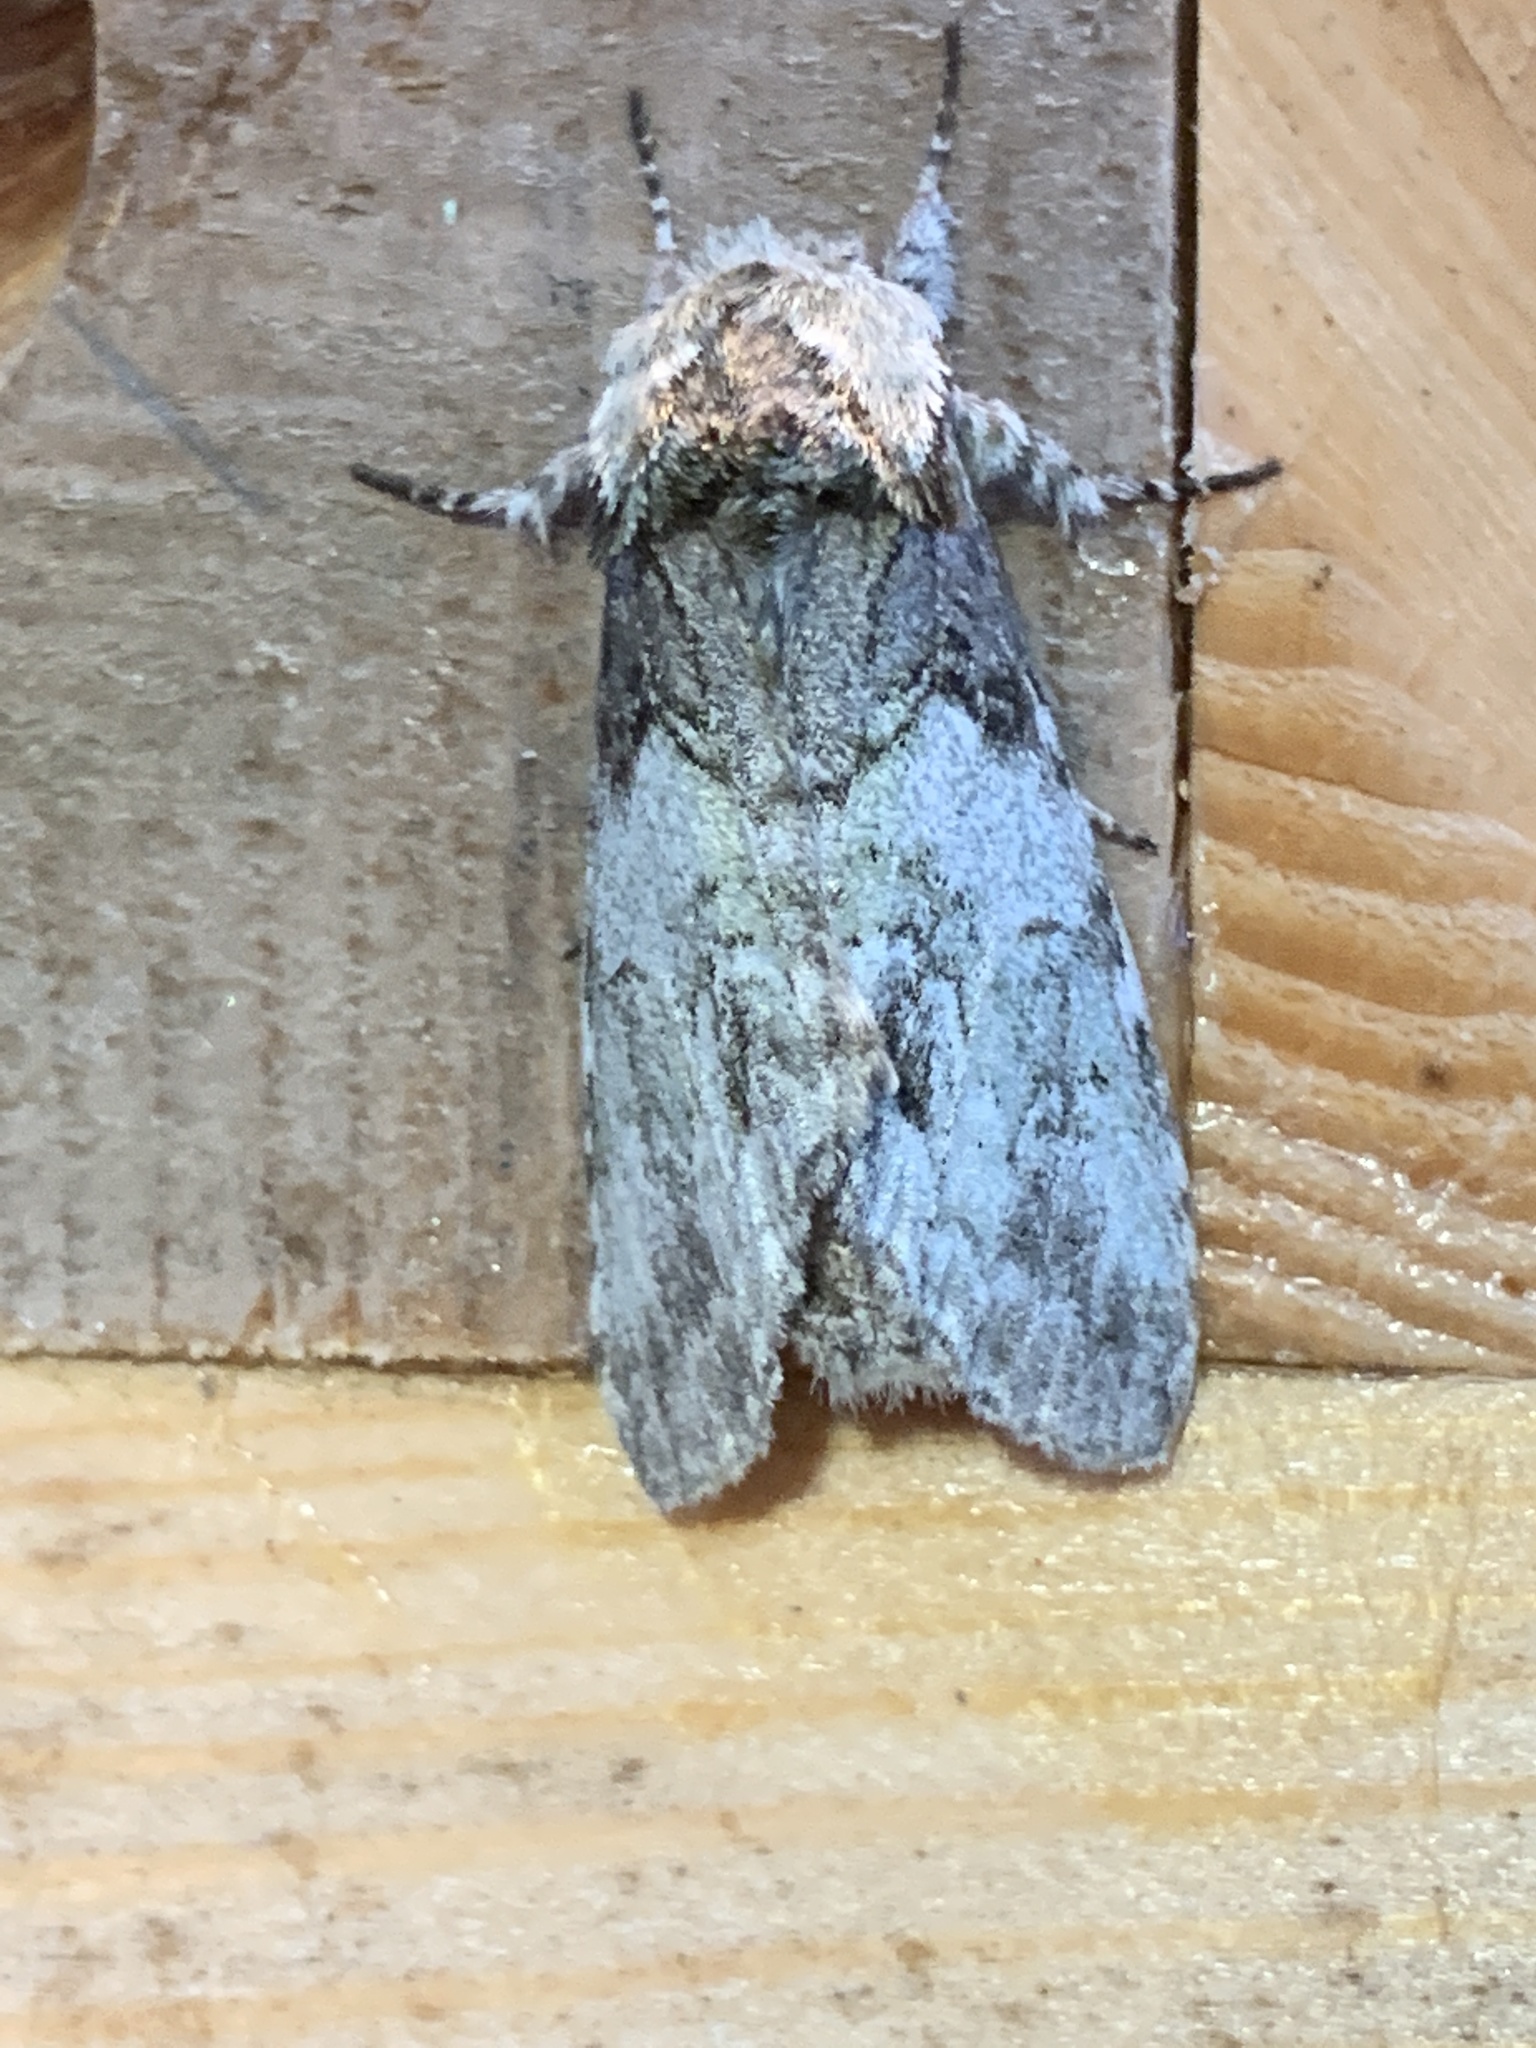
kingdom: Animalia
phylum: Arthropoda
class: Insecta
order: Lepidoptera
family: Notodontidae
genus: Macrurocampa
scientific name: Macrurocampa marthesia
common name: Mottled prominent
